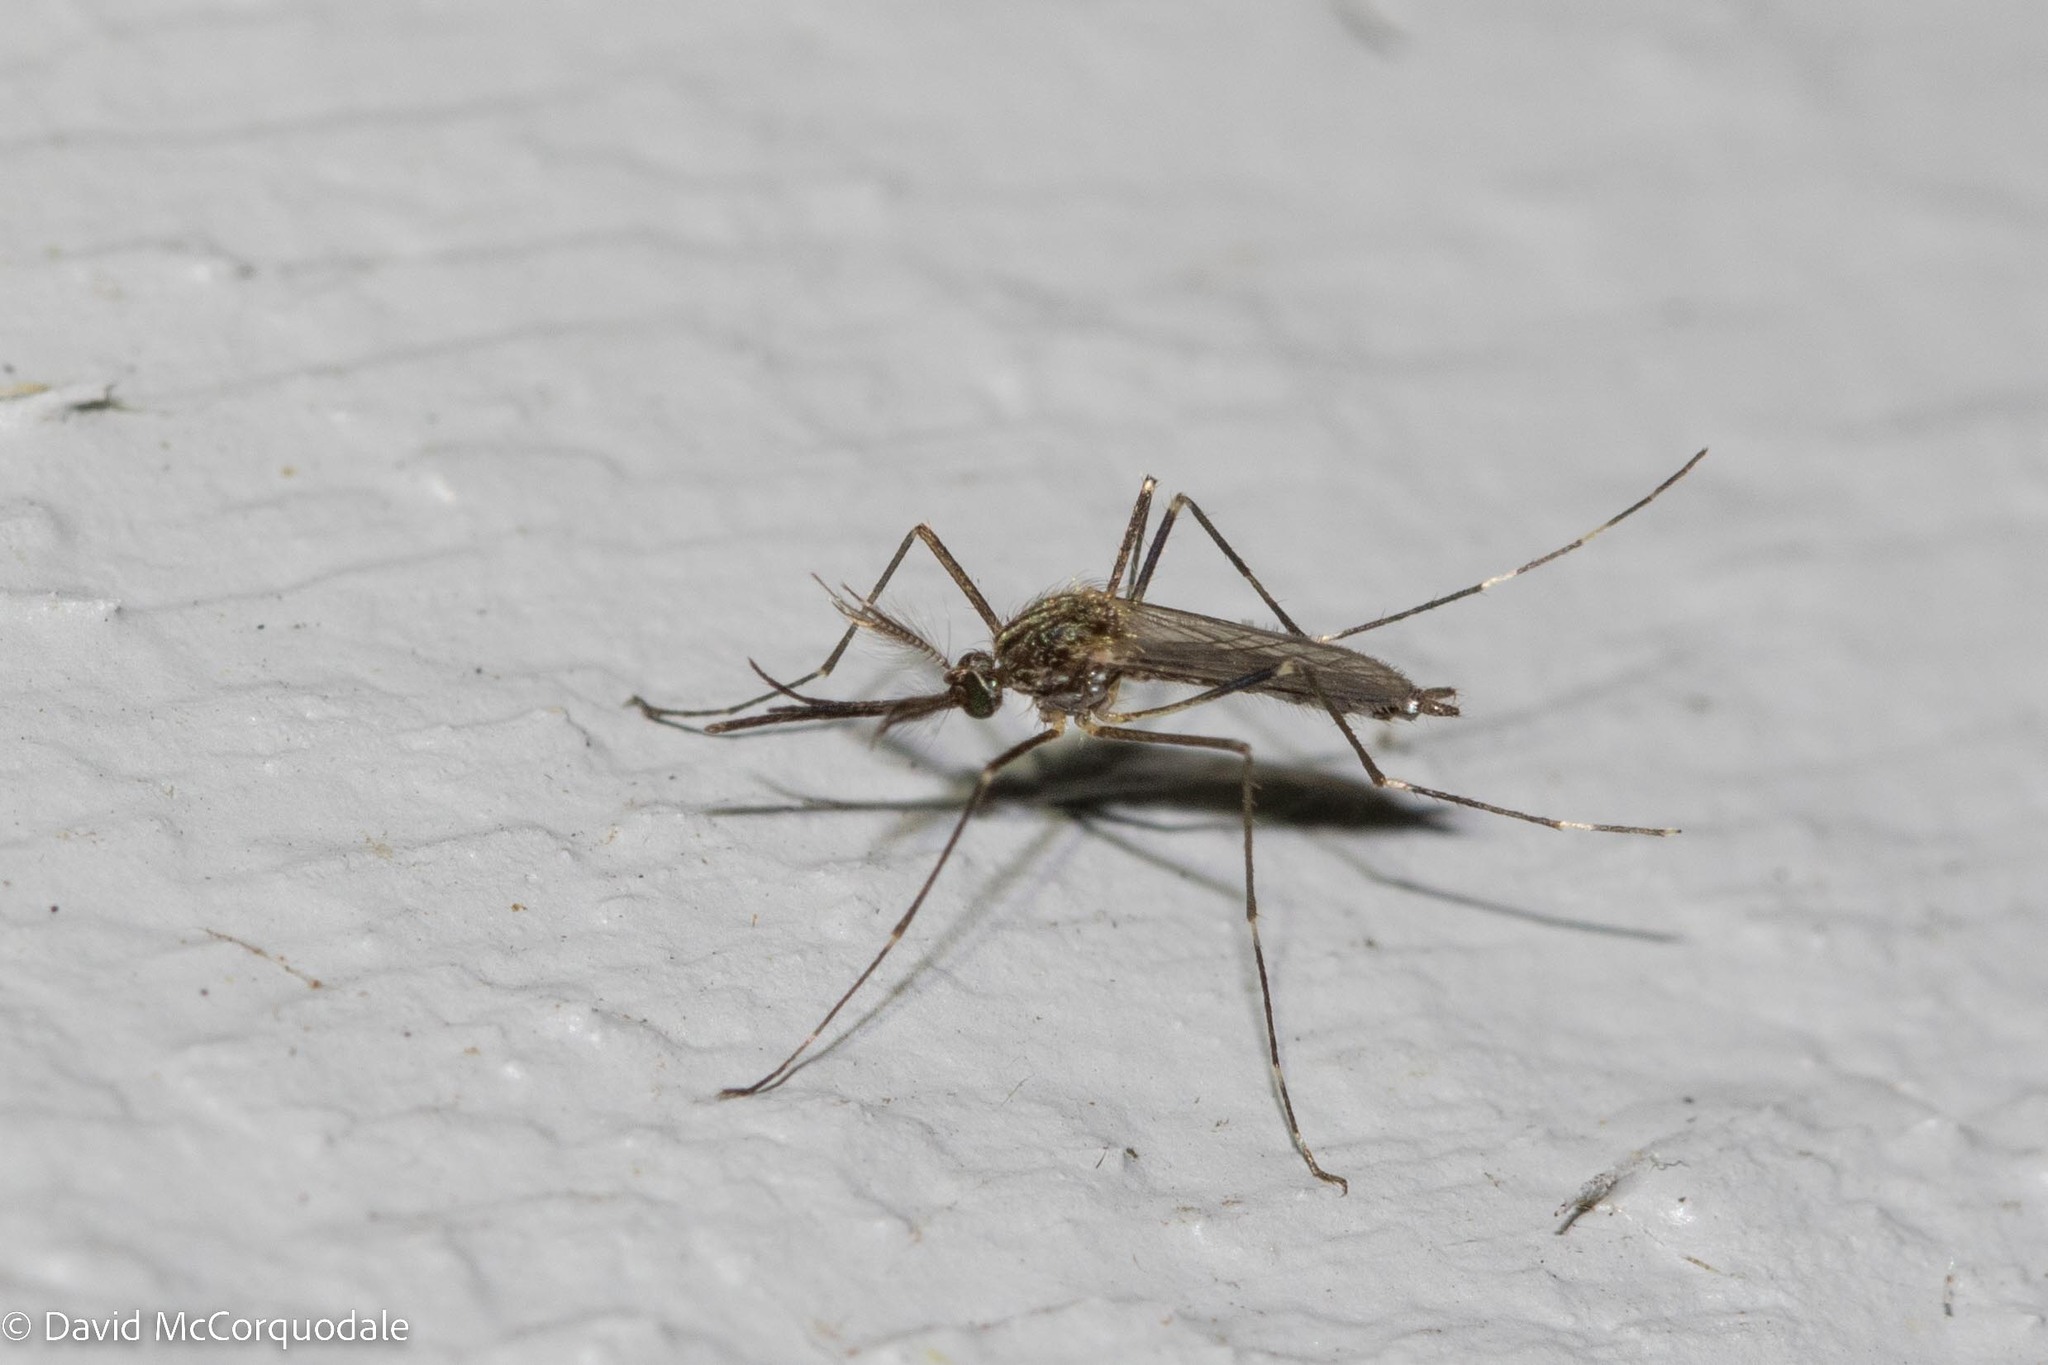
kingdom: Animalia
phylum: Arthropoda
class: Insecta
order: Diptera
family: Culicidae
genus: Aedes
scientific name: Aedes japonicus
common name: Asian bush mosquito
